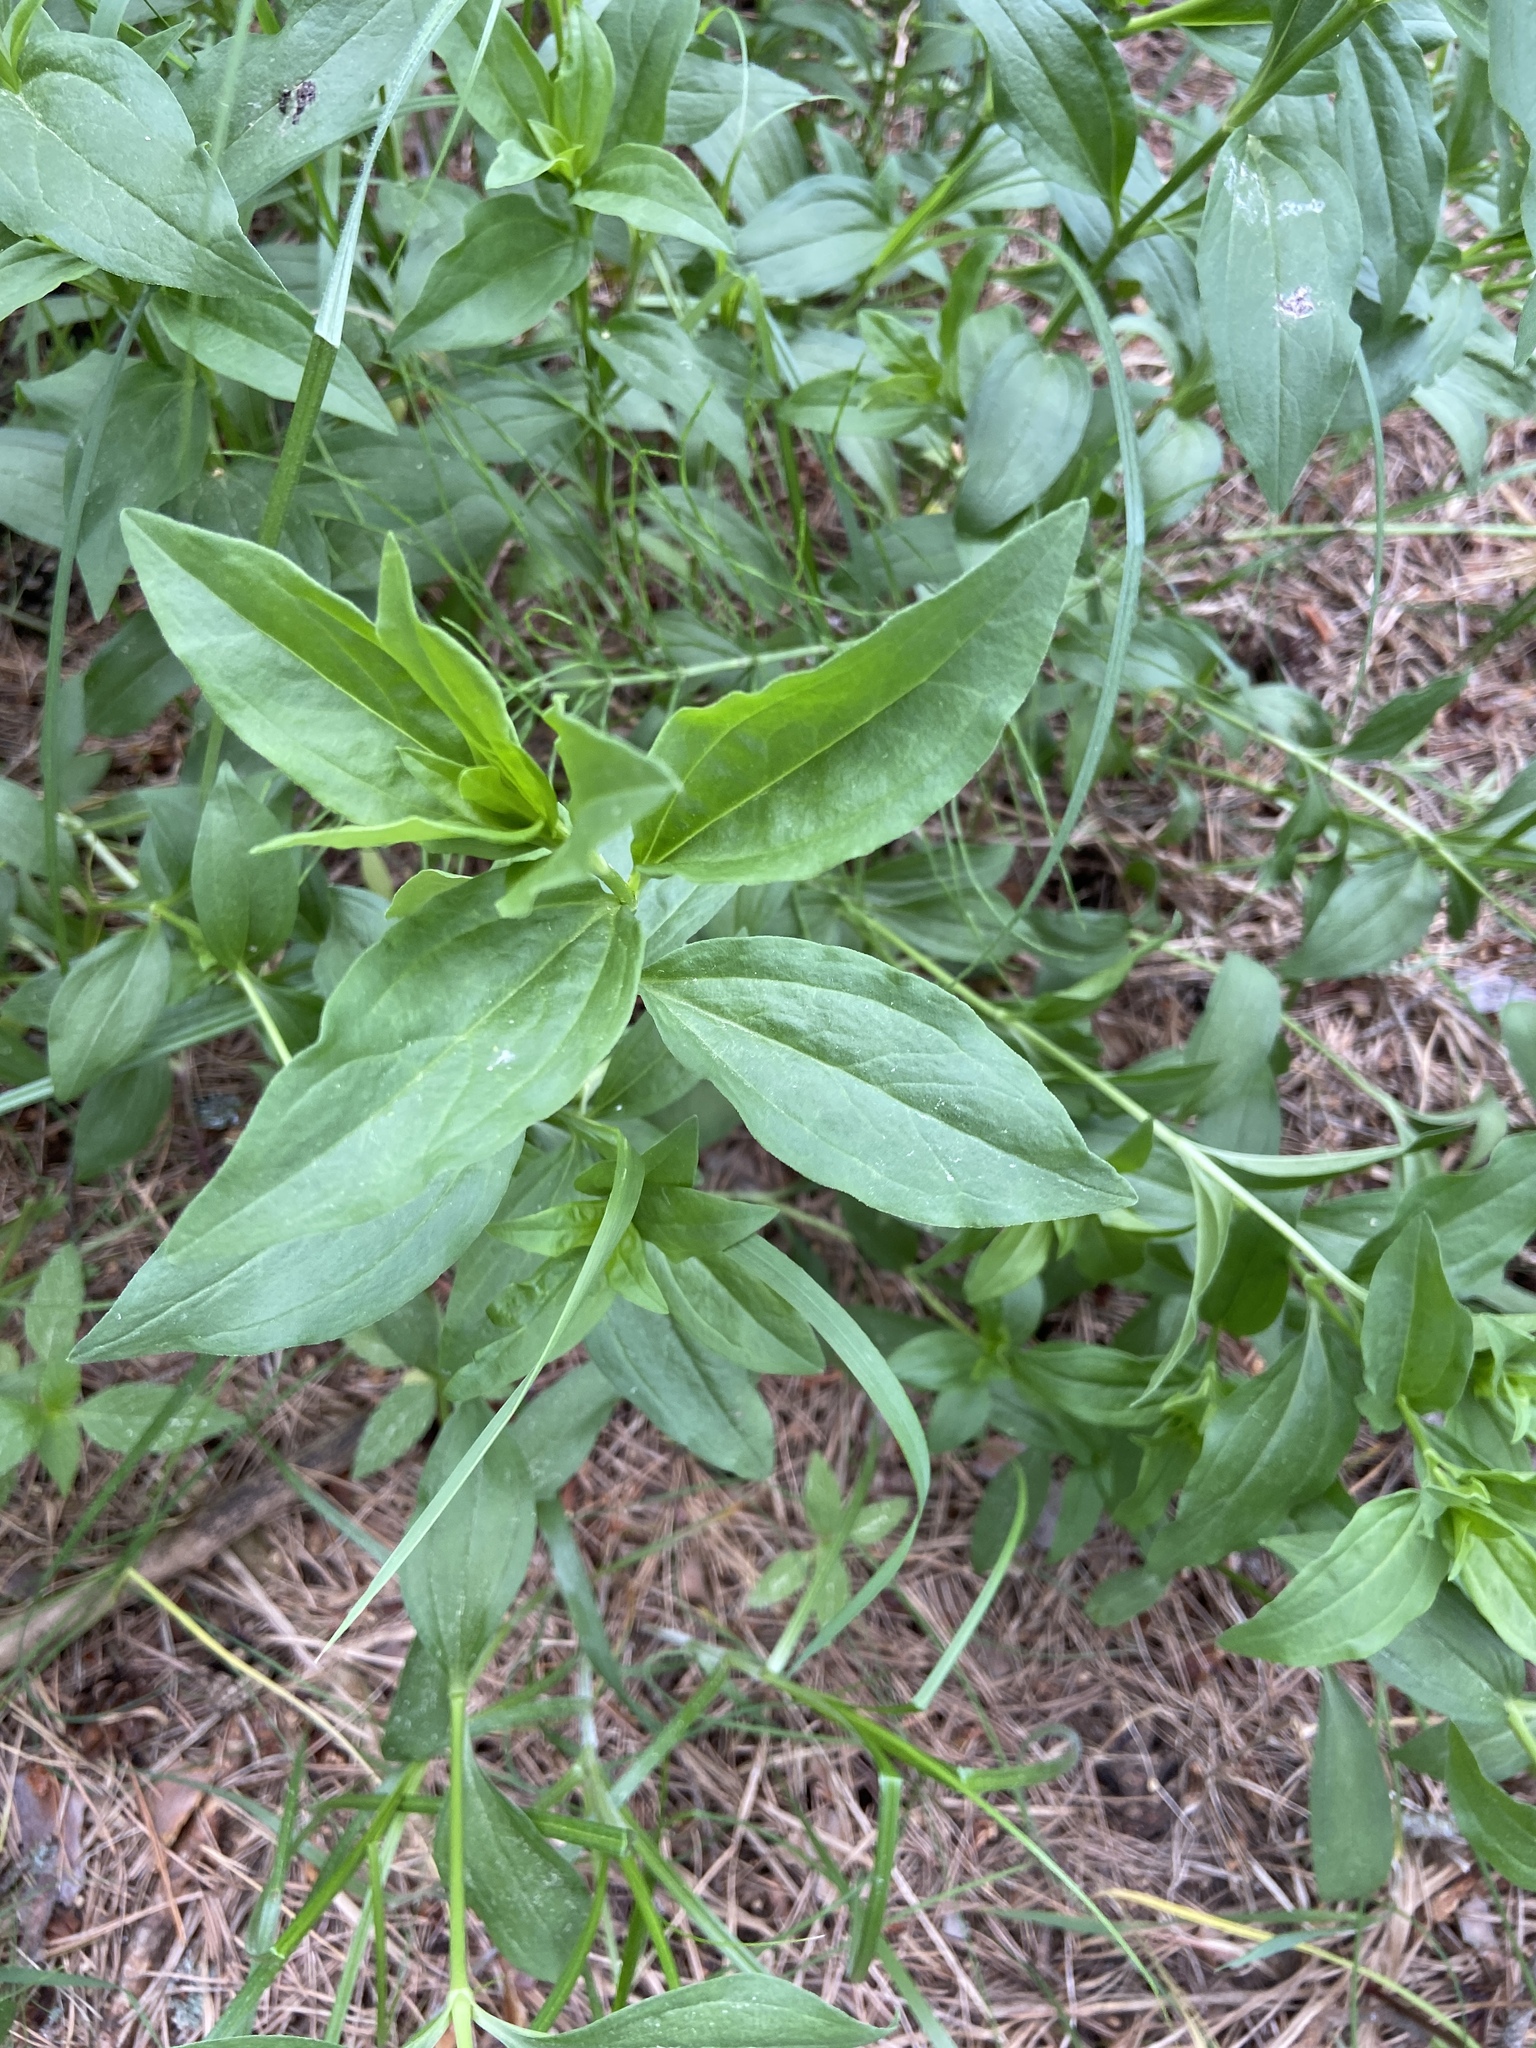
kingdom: Plantae
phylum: Tracheophyta
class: Magnoliopsida
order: Caryophyllales
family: Caryophyllaceae
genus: Saponaria
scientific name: Saponaria officinalis
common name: Soapwort
